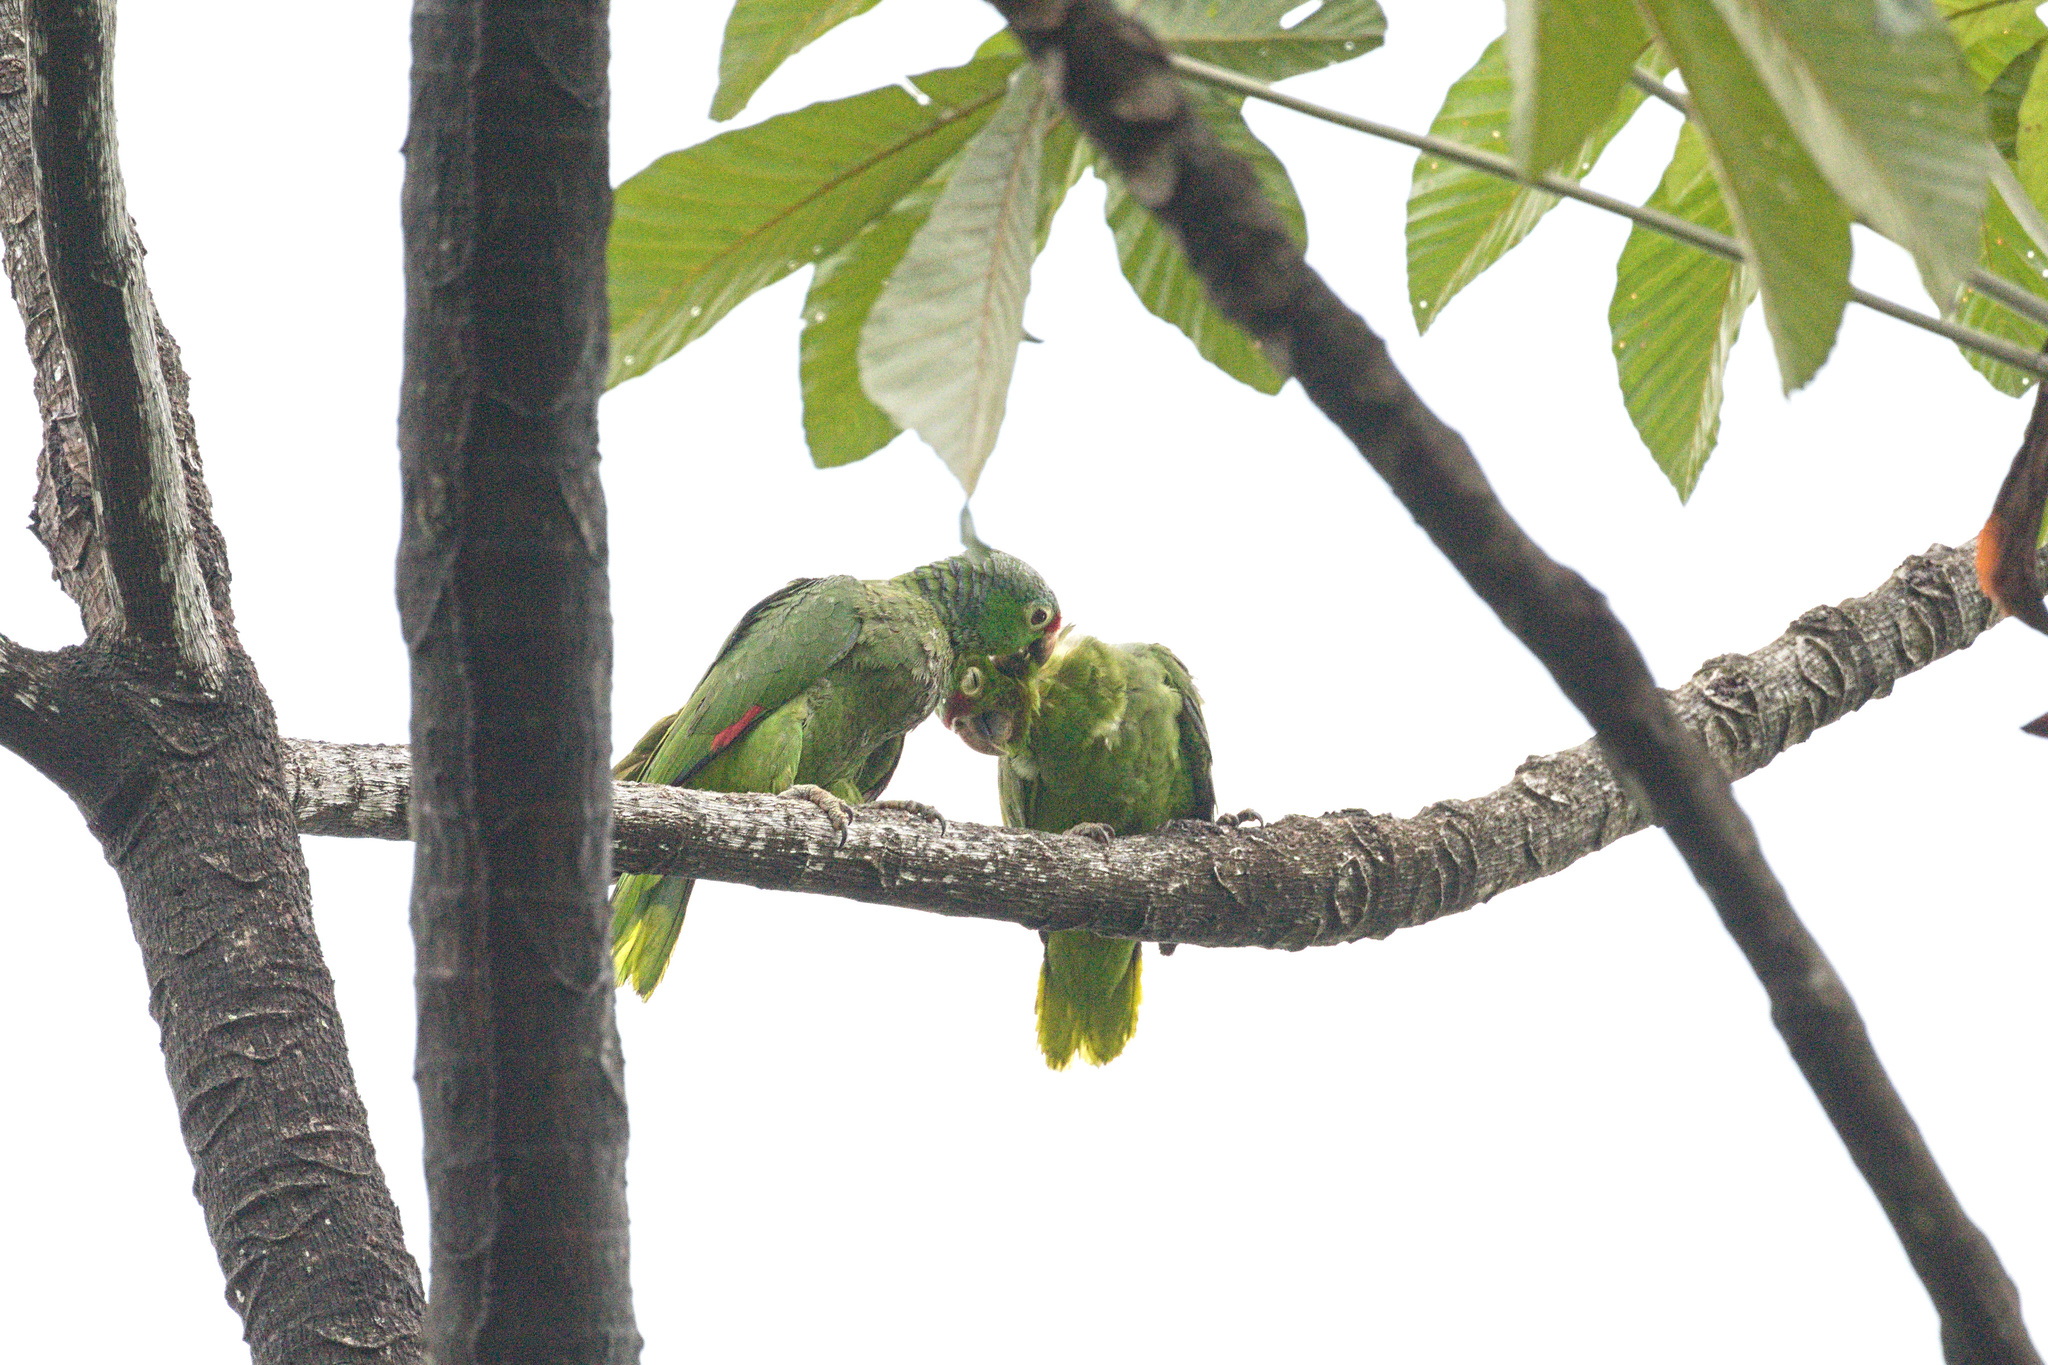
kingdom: Animalia
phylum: Chordata
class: Aves
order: Psittaciformes
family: Psittacidae
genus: Amazona
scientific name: Amazona autumnalis
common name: Red-lored amazon
